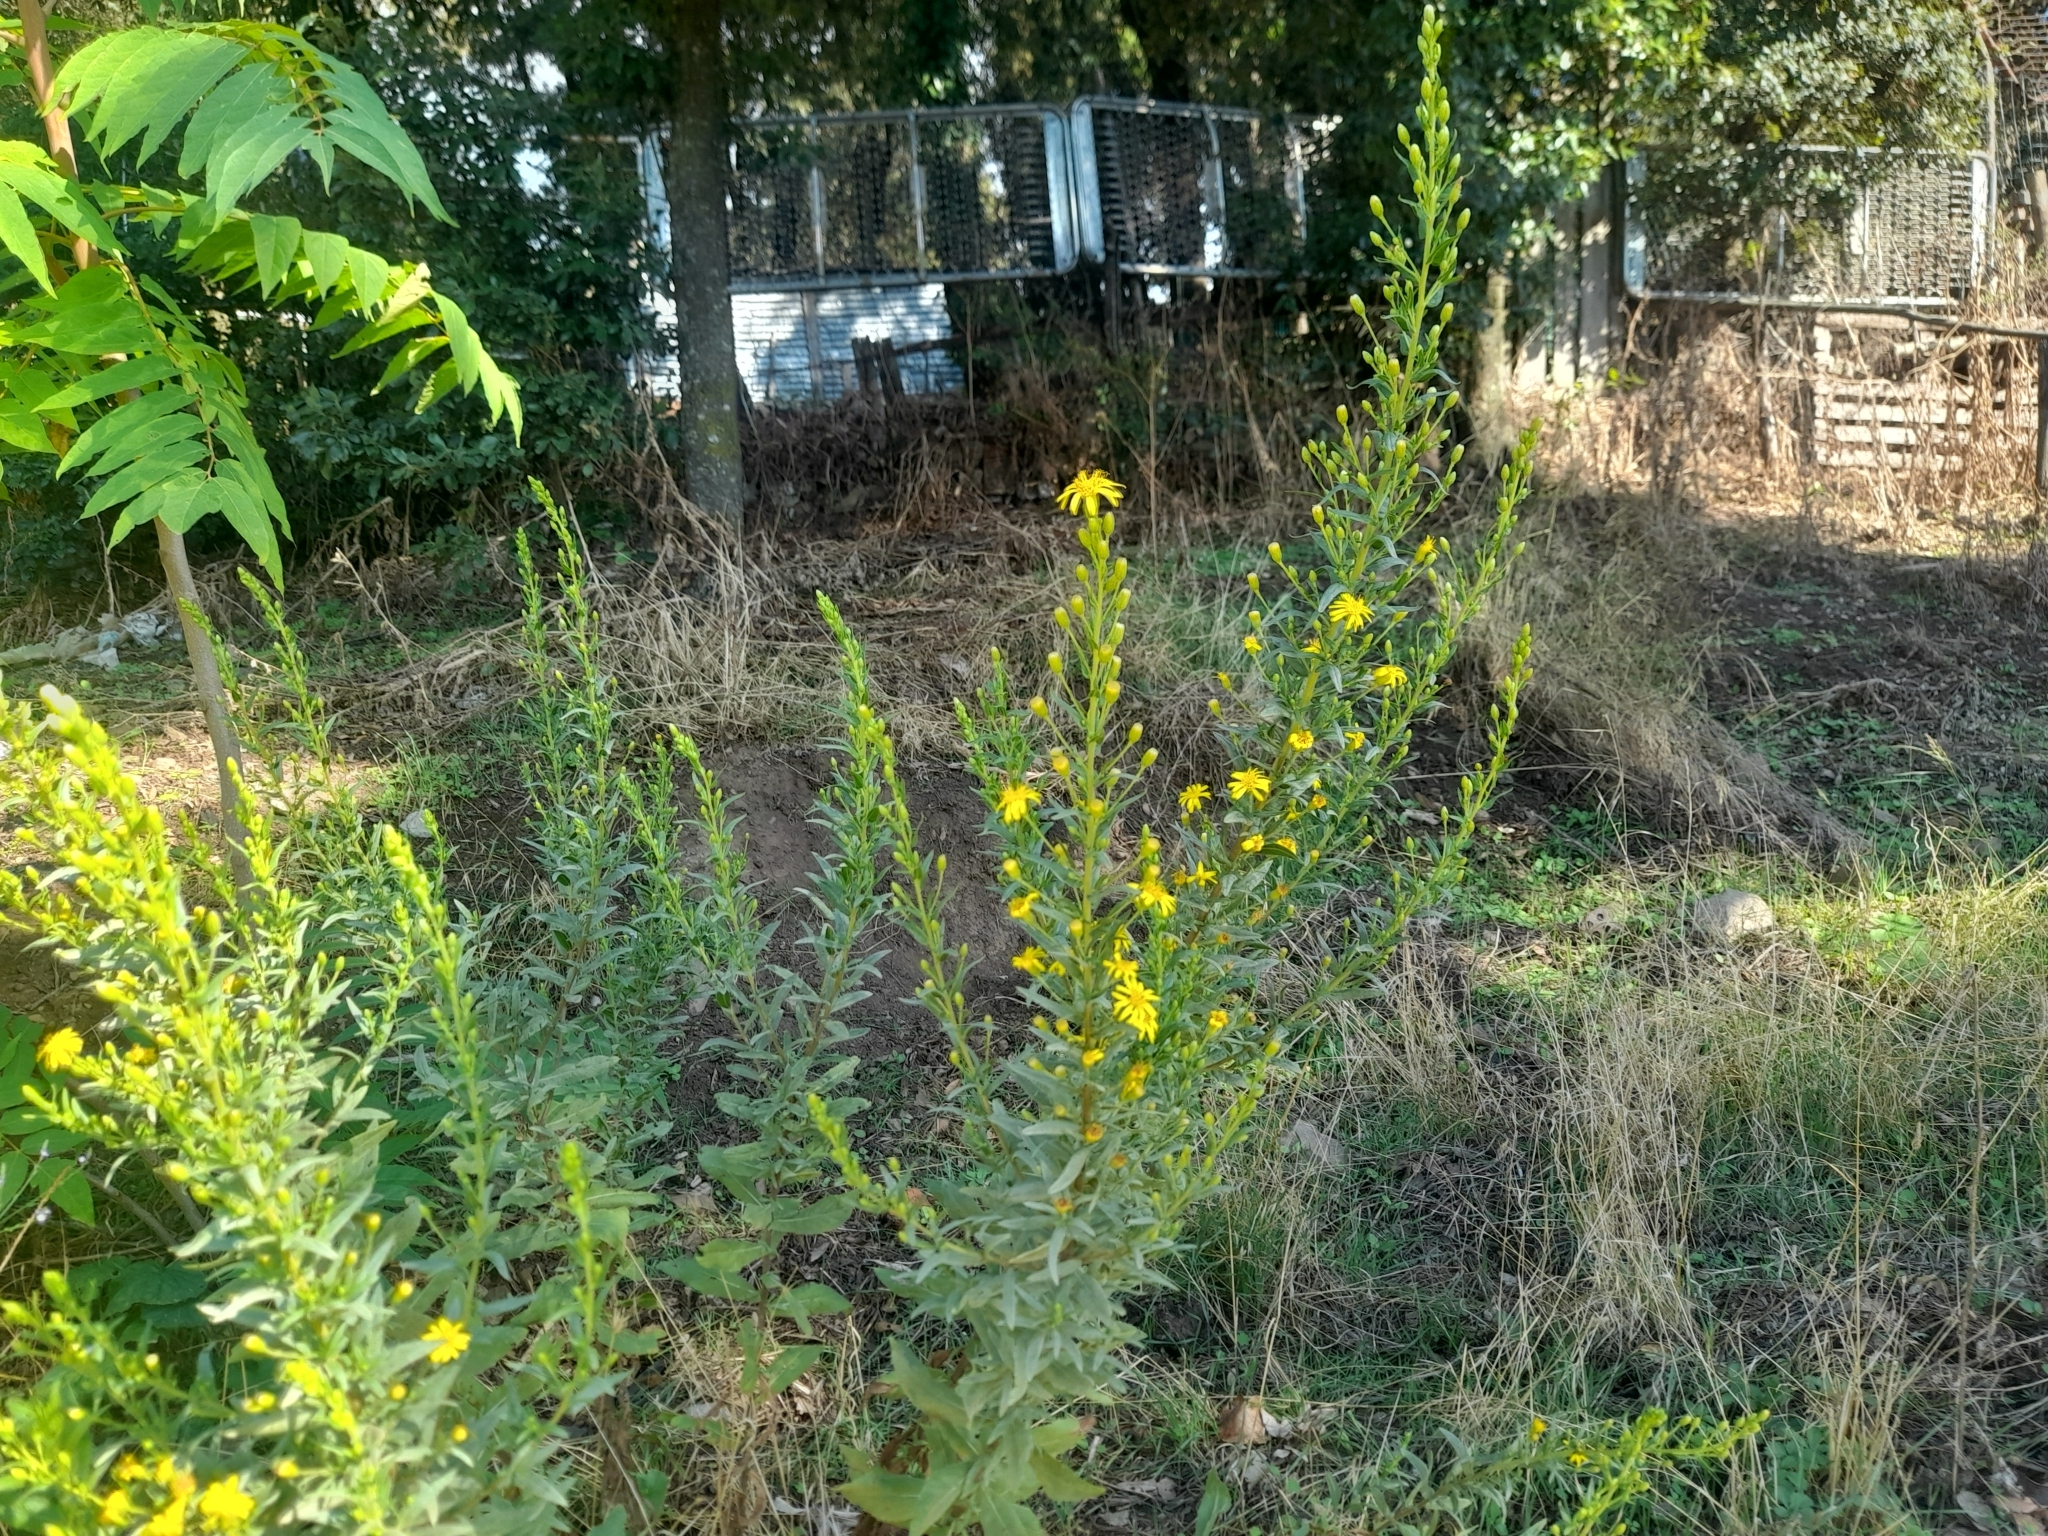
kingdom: Plantae
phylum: Tracheophyta
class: Magnoliopsida
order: Asterales
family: Asteraceae
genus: Dittrichia
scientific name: Dittrichia viscosa
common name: Woody fleabane
